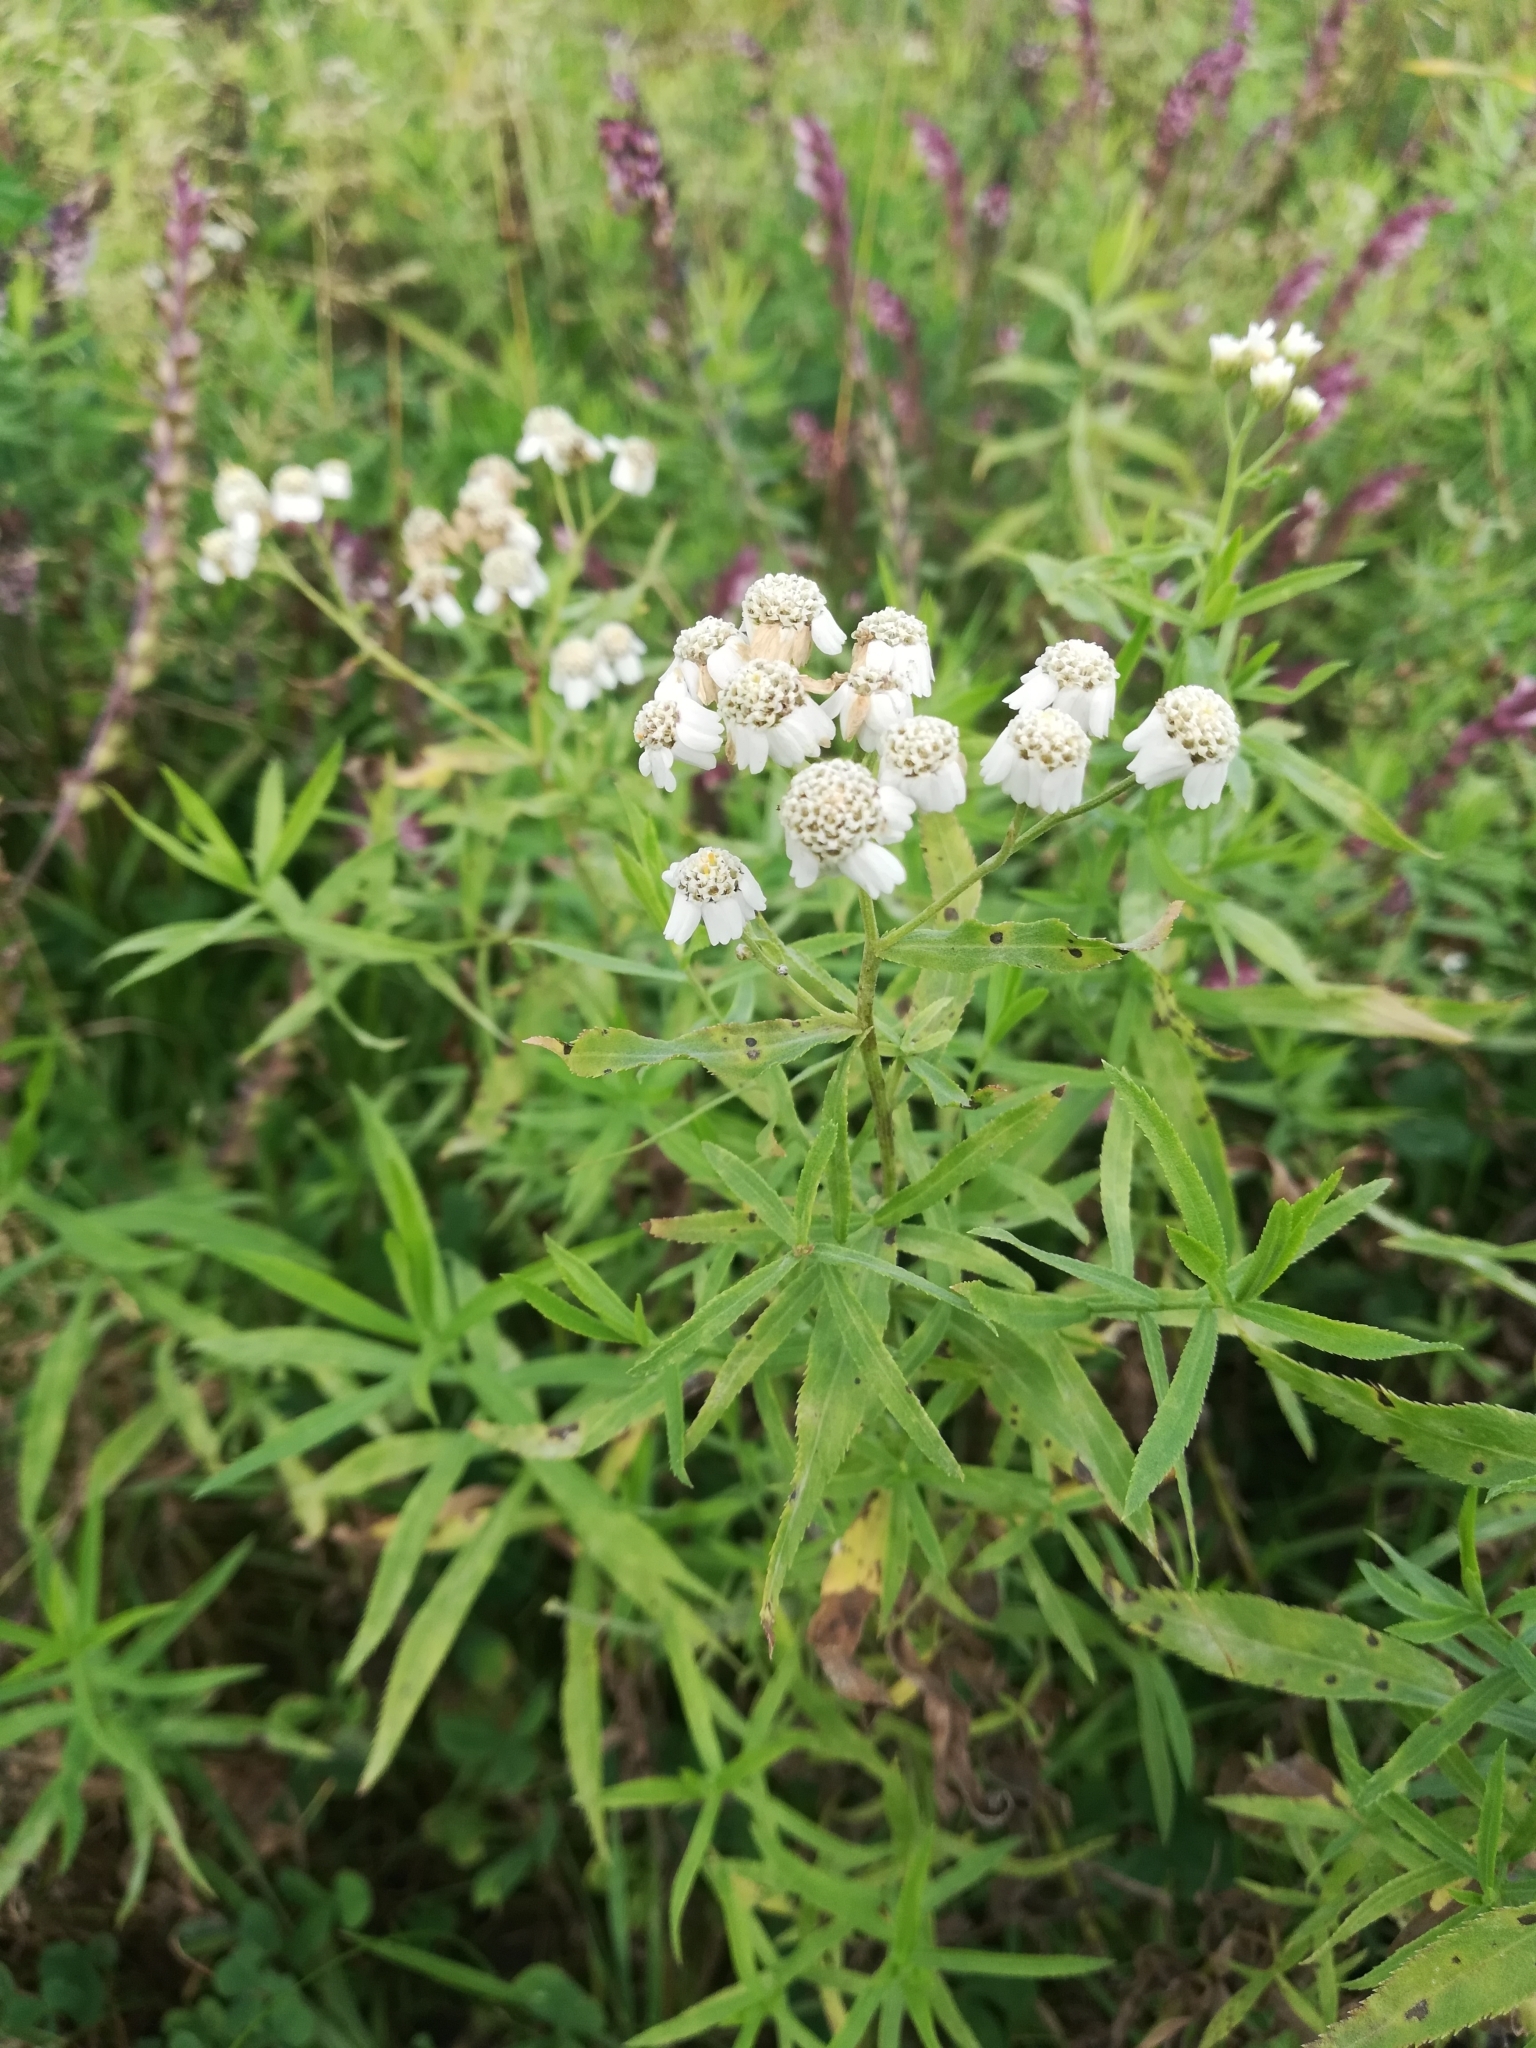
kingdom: Plantae
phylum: Tracheophyta
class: Magnoliopsida
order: Asterales
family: Asteraceae
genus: Achillea
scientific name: Achillea salicifolia
